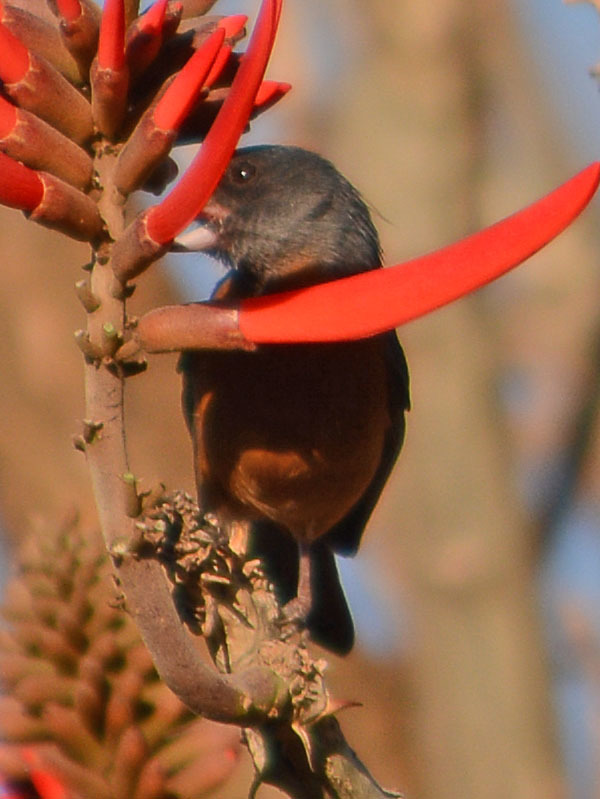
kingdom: Animalia
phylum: Chordata
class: Aves
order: Passeriformes
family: Thraupidae
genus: Diglossa
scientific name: Diglossa baritula
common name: Cinnamon-bellied flowerpiercer
